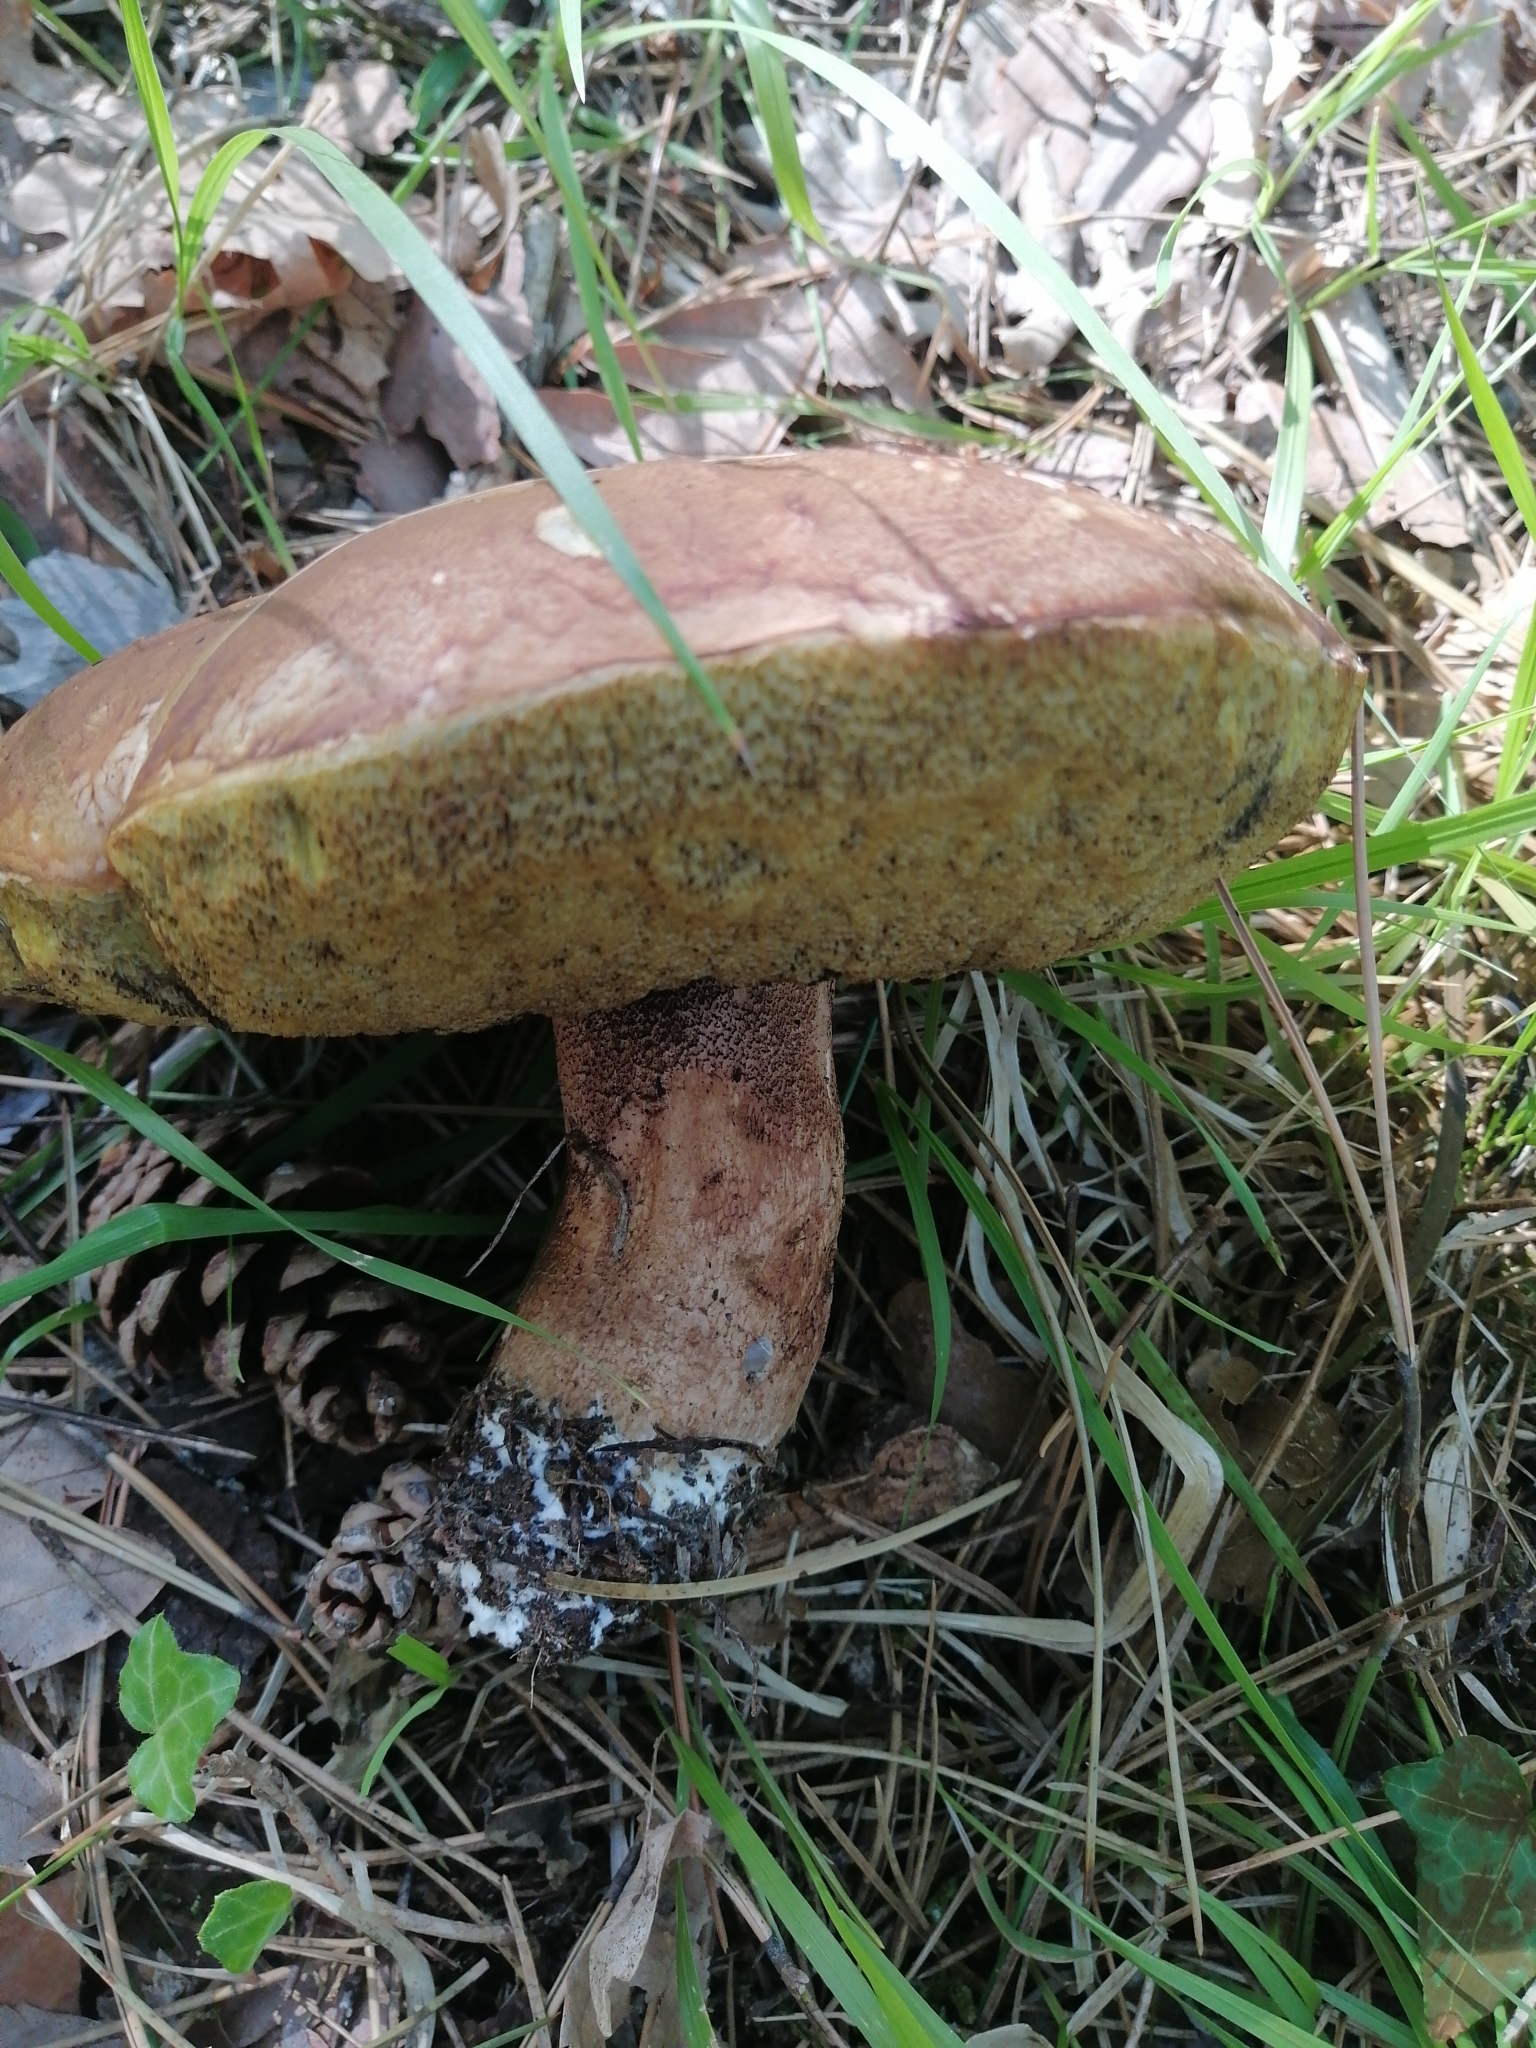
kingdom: Fungi
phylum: Basidiomycota
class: Agaricomycetes
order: Boletales
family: Boletaceae
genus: Boletus
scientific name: Boletus reticulatus
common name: Summer bolete
